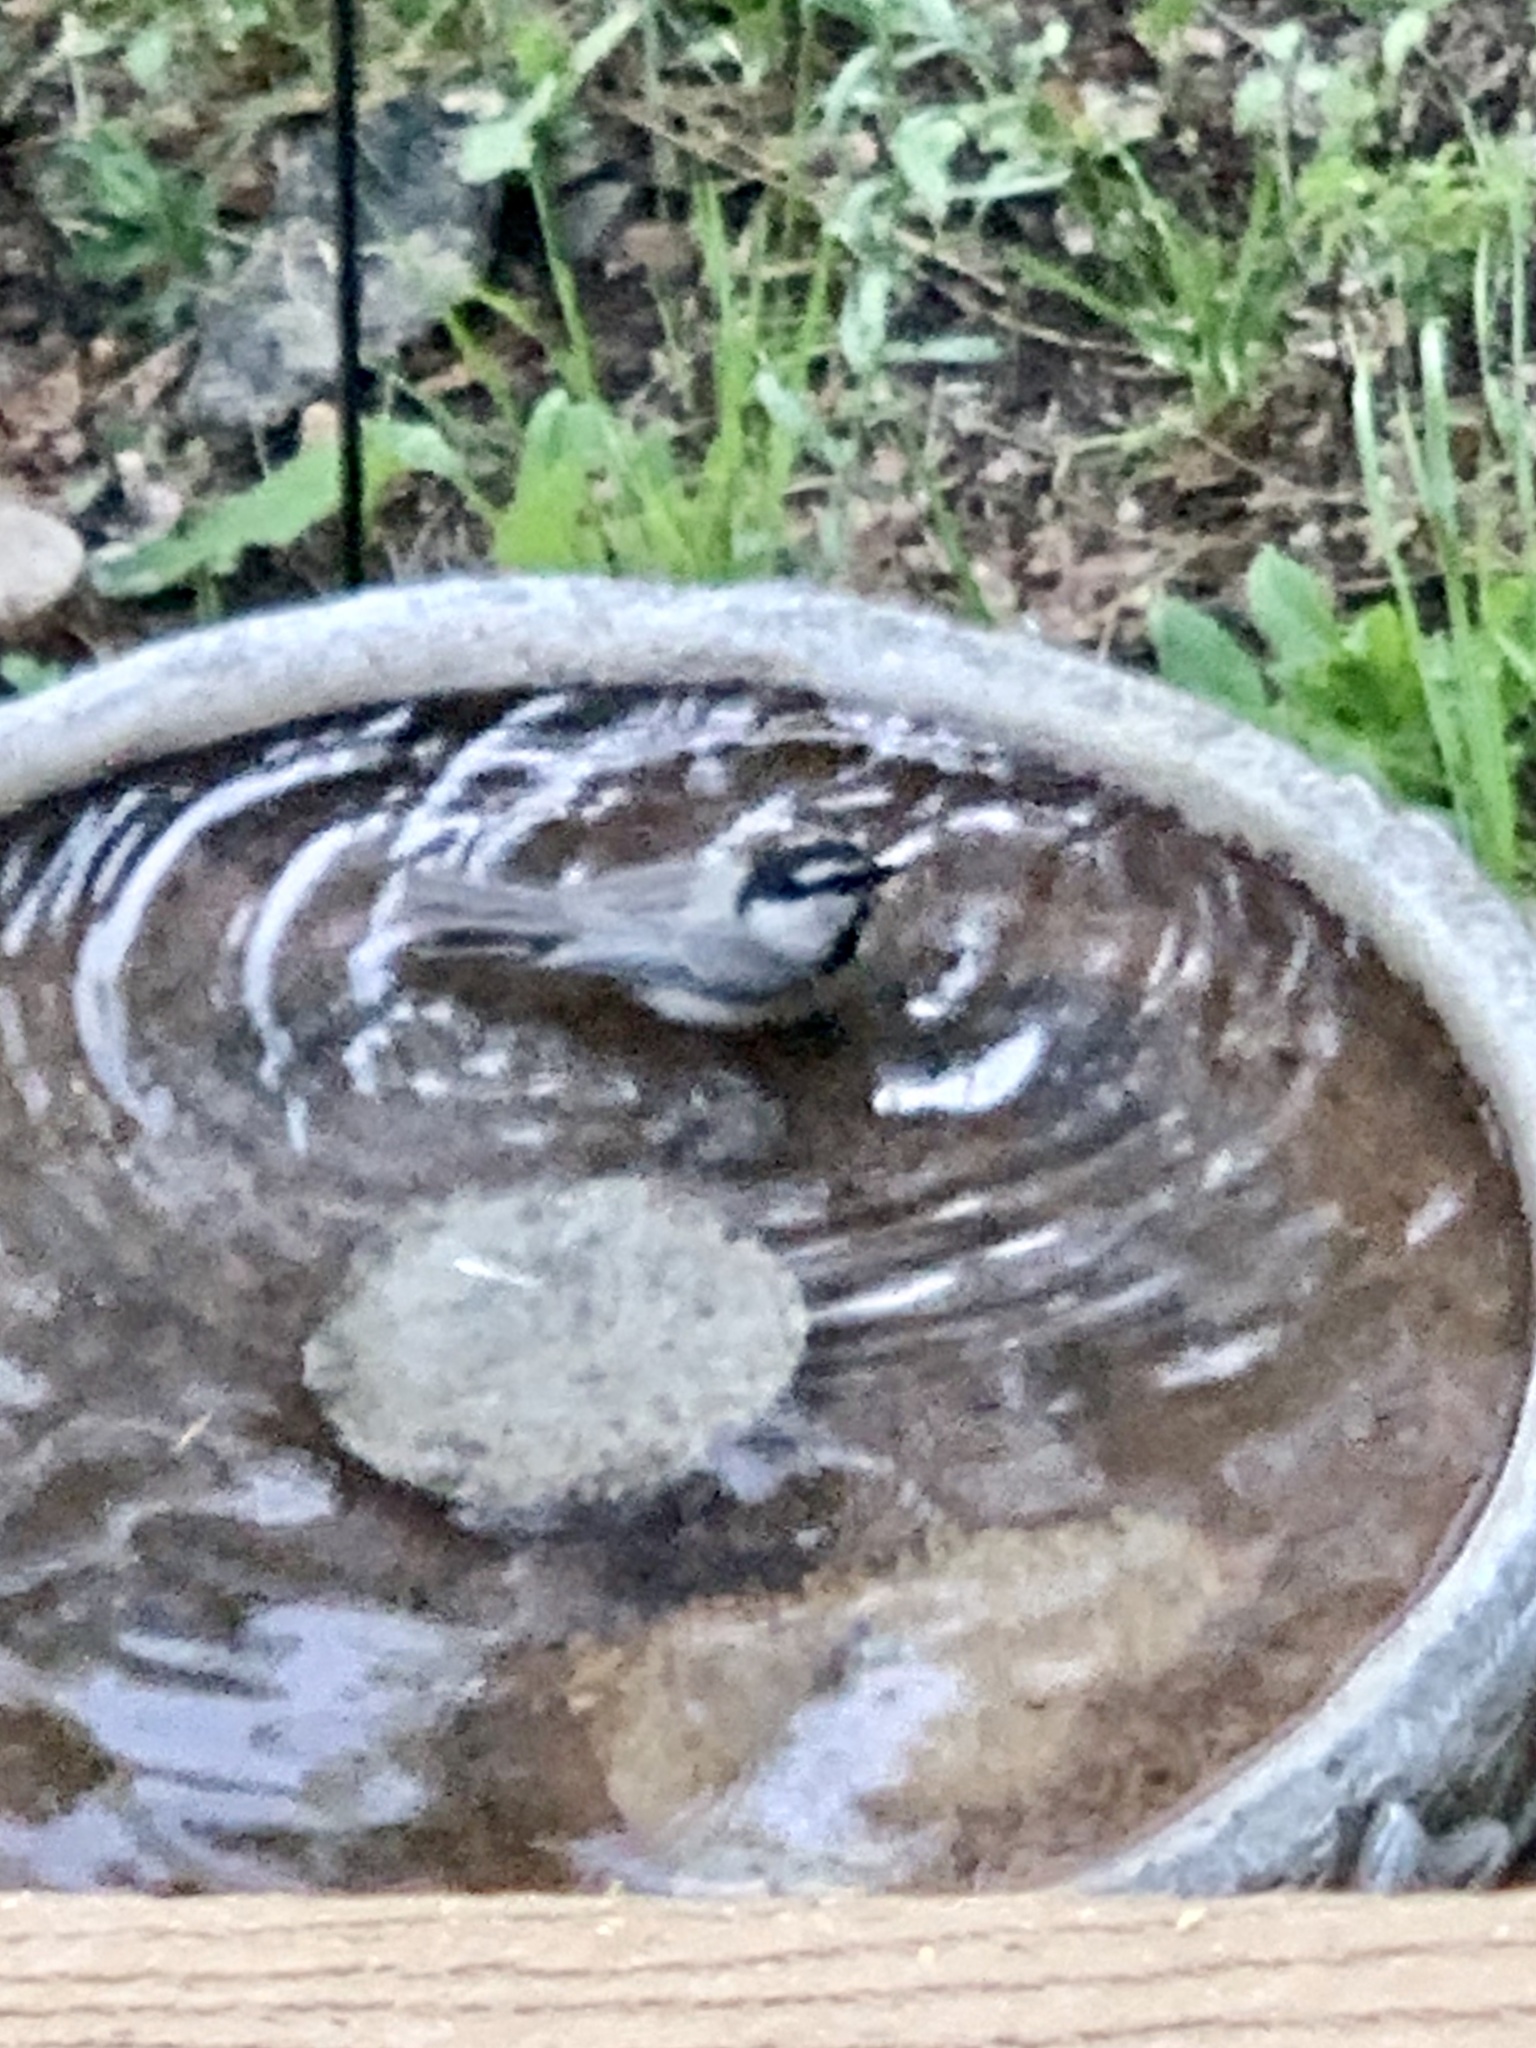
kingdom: Animalia
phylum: Chordata
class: Aves
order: Passeriformes
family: Paridae
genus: Poecile
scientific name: Poecile gambeli
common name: Mountain chickadee
